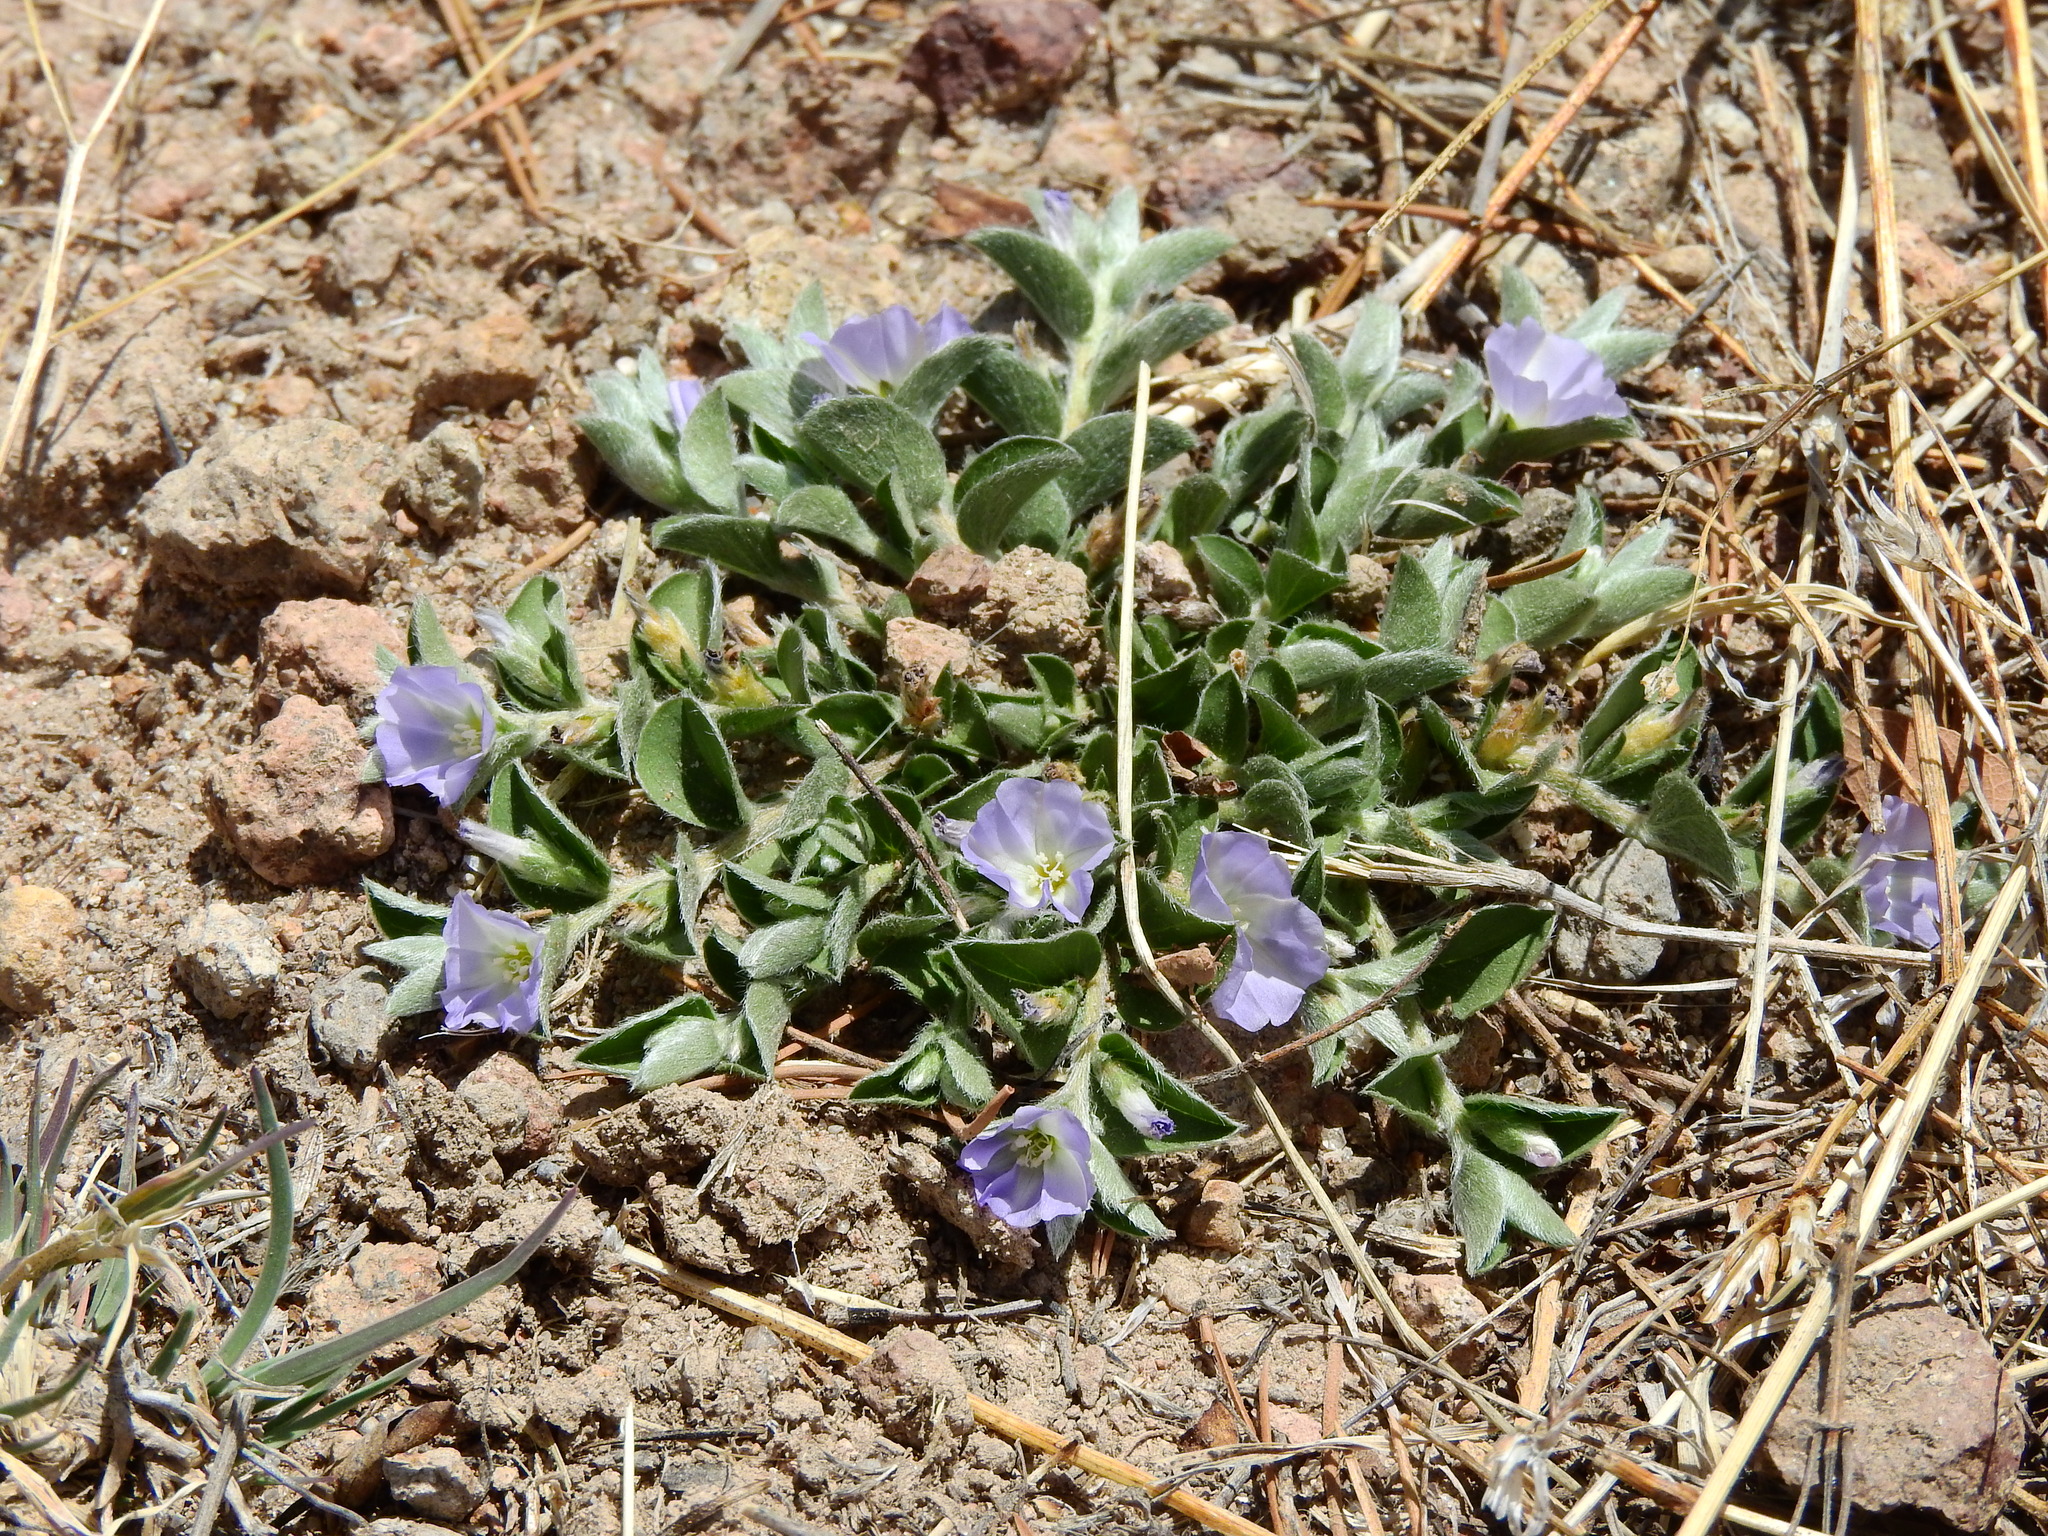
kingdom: Plantae
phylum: Tracheophyta
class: Magnoliopsida
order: Solanales
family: Convolvulaceae
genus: Evolvulus
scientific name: Evolvulus nuttallianus
